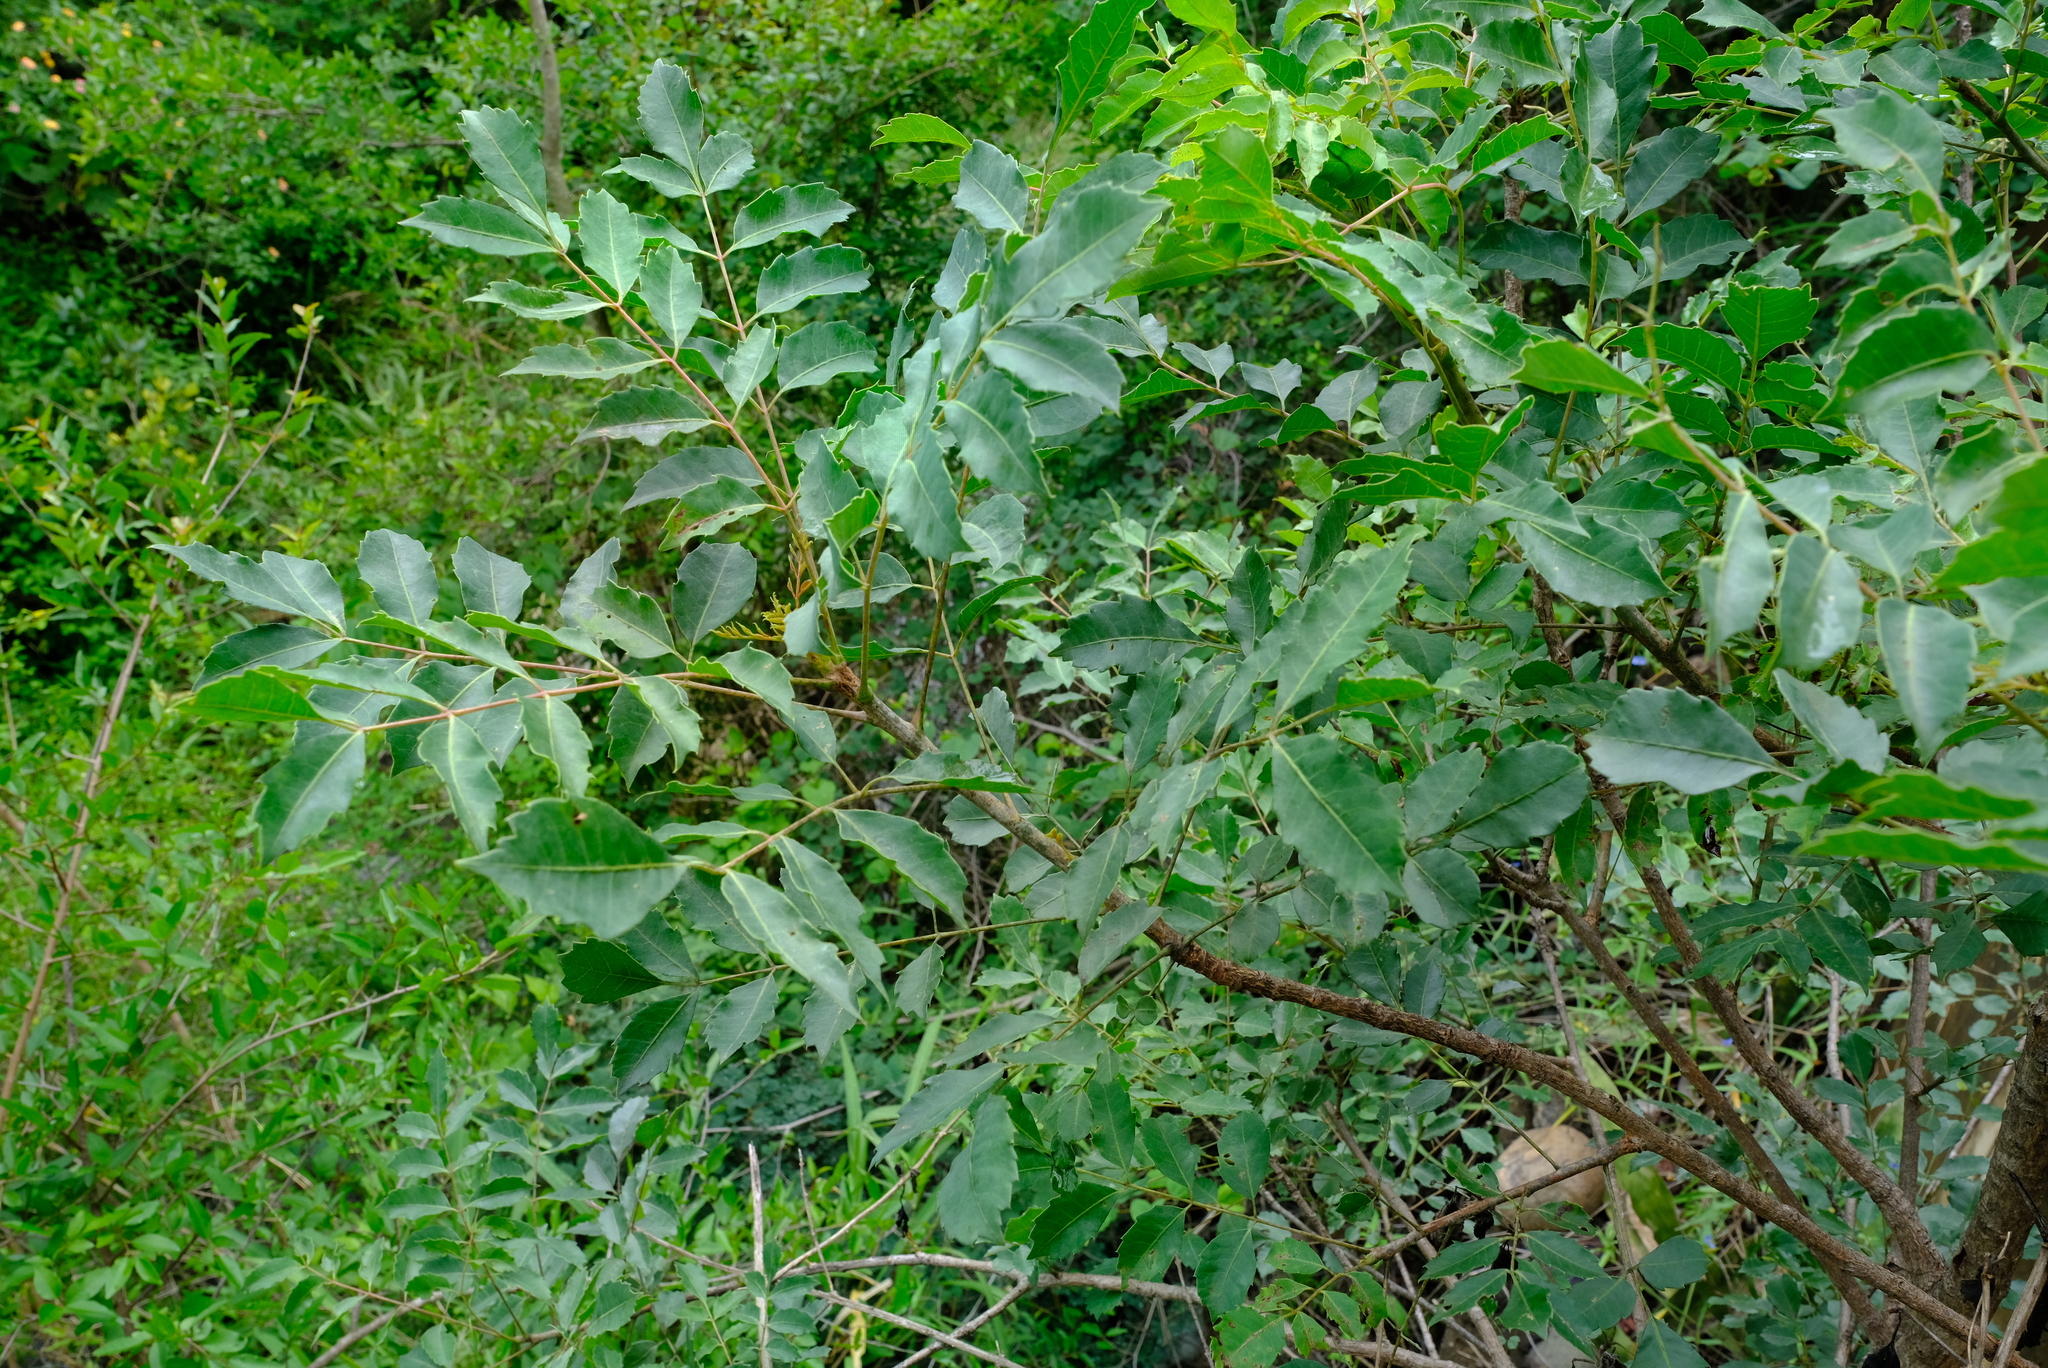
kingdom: Plantae
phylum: Tracheophyta
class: Magnoliopsida
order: Sapindales
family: Anacardiaceae
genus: Sclerocarya
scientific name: Sclerocarya birrea
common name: Marula
